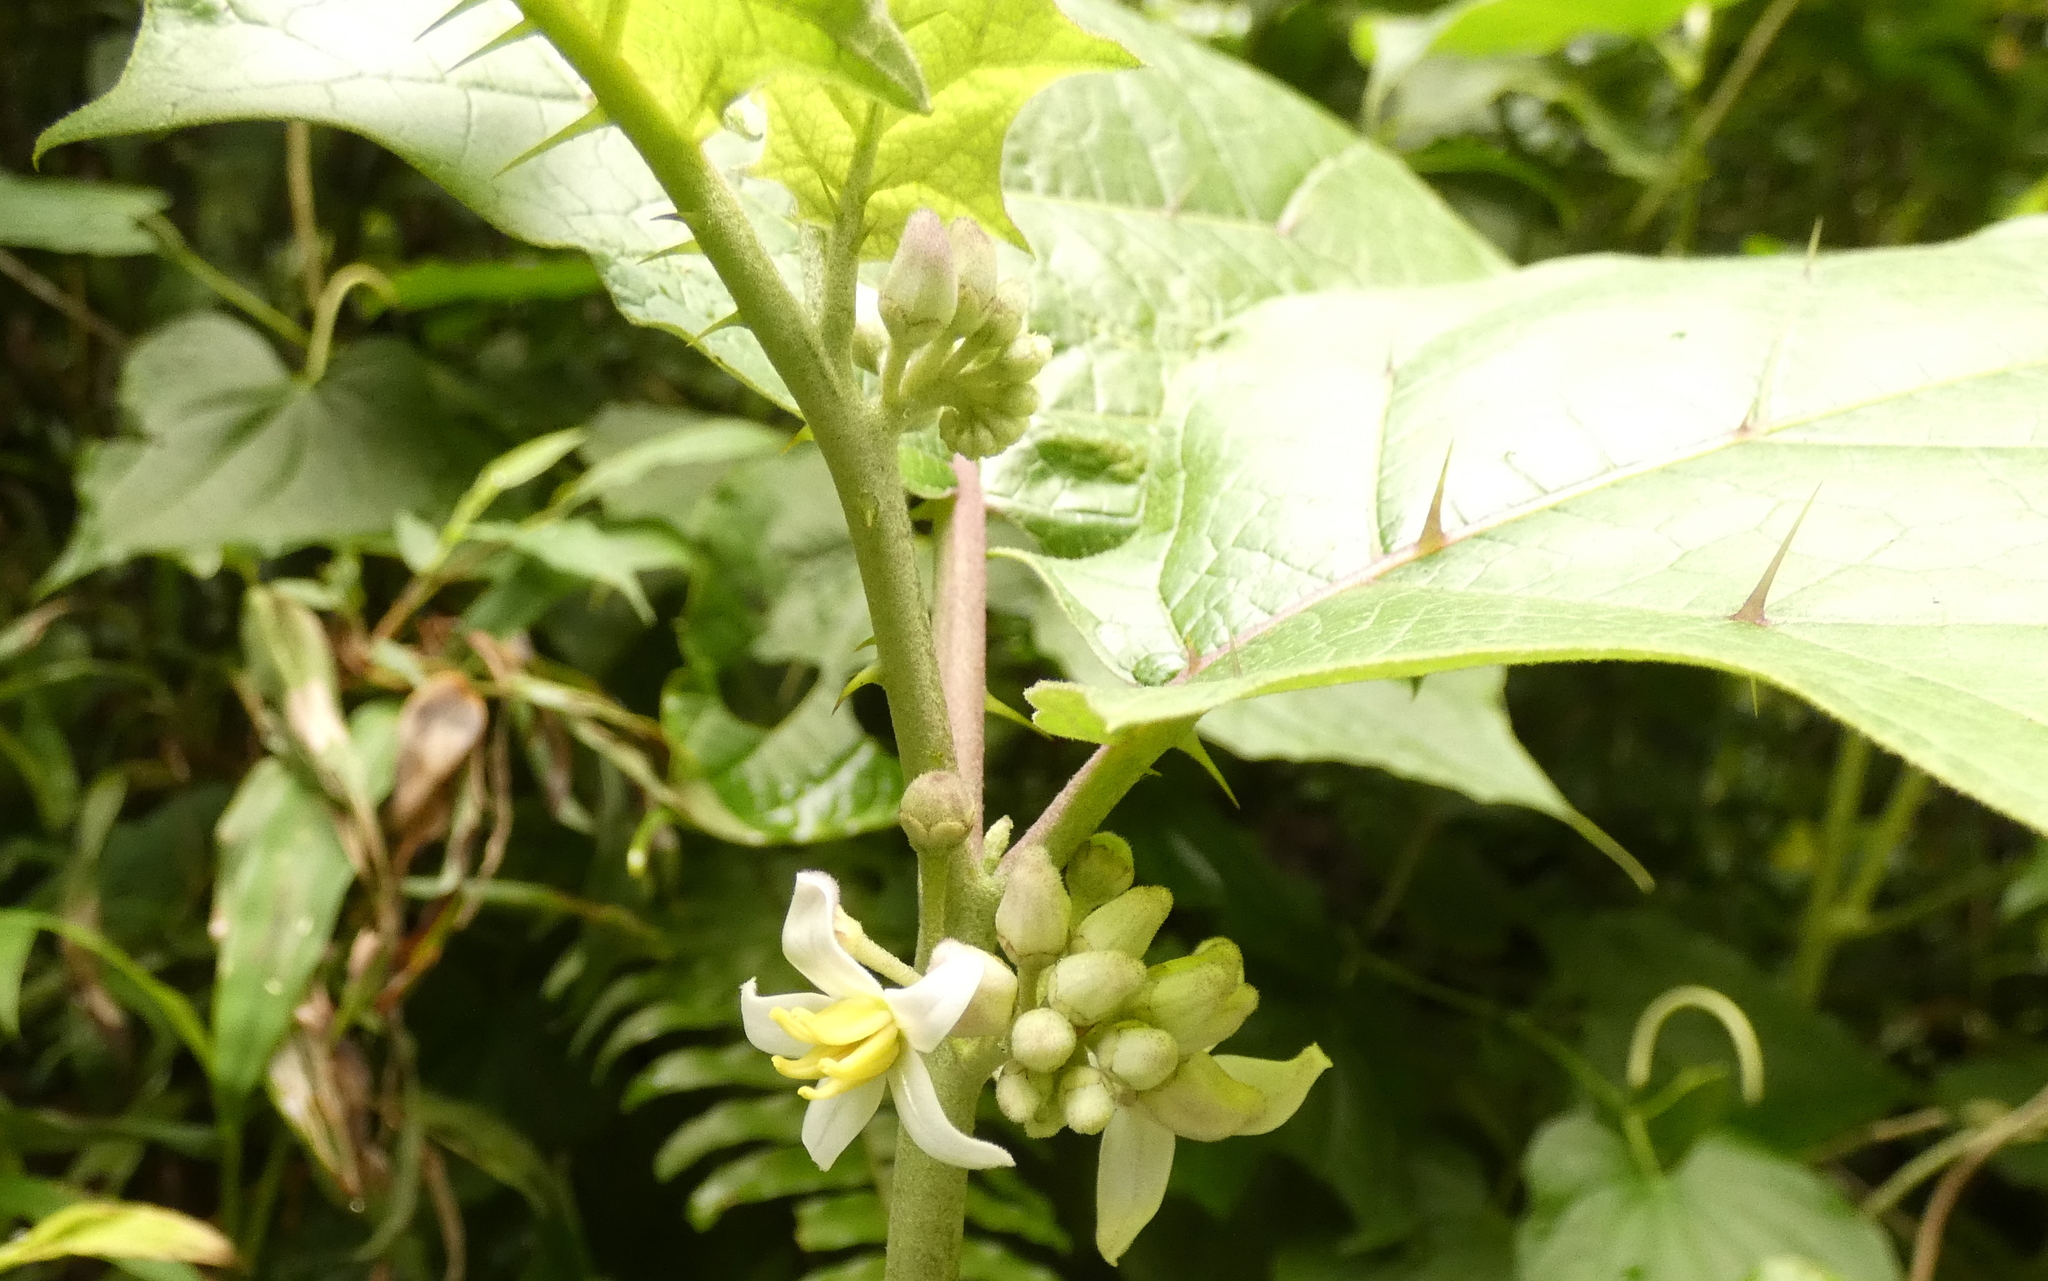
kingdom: Plantae
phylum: Tracheophyta
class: Magnoliopsida
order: Solanales
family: Solanaceae
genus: Solanum
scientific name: Solanum
